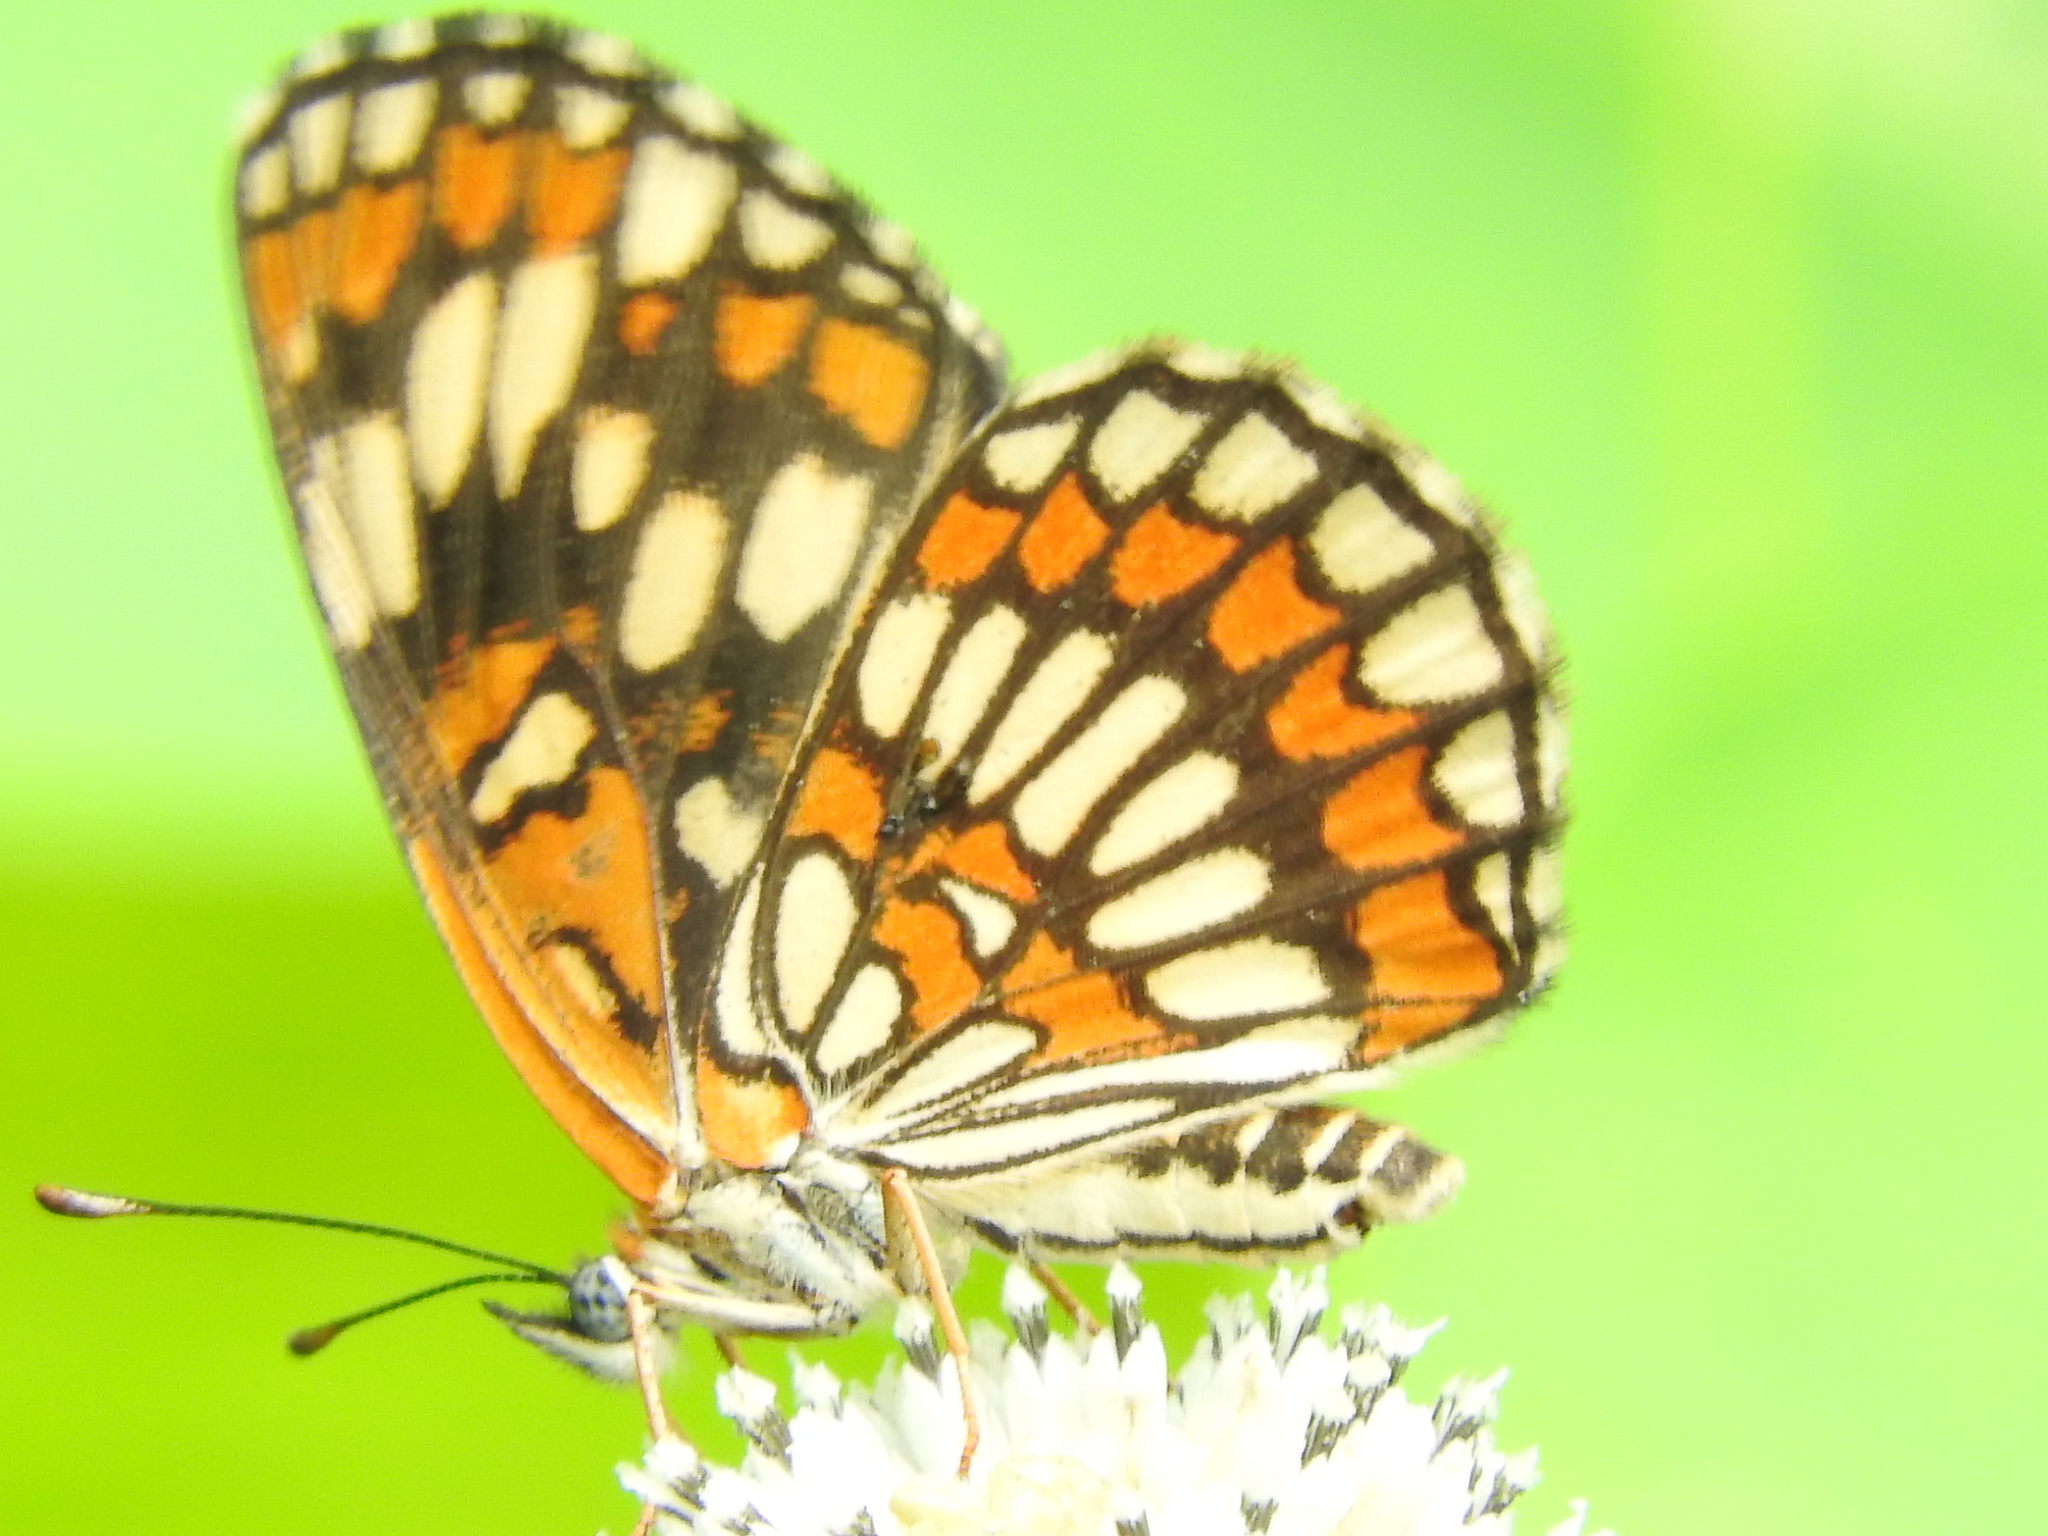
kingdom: Animalia
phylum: Arthropoda
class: Insecta
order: Lepidoptera
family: Nymphalidae
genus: Thessalia
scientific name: Thessalia theona
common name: Nymphalid moth
